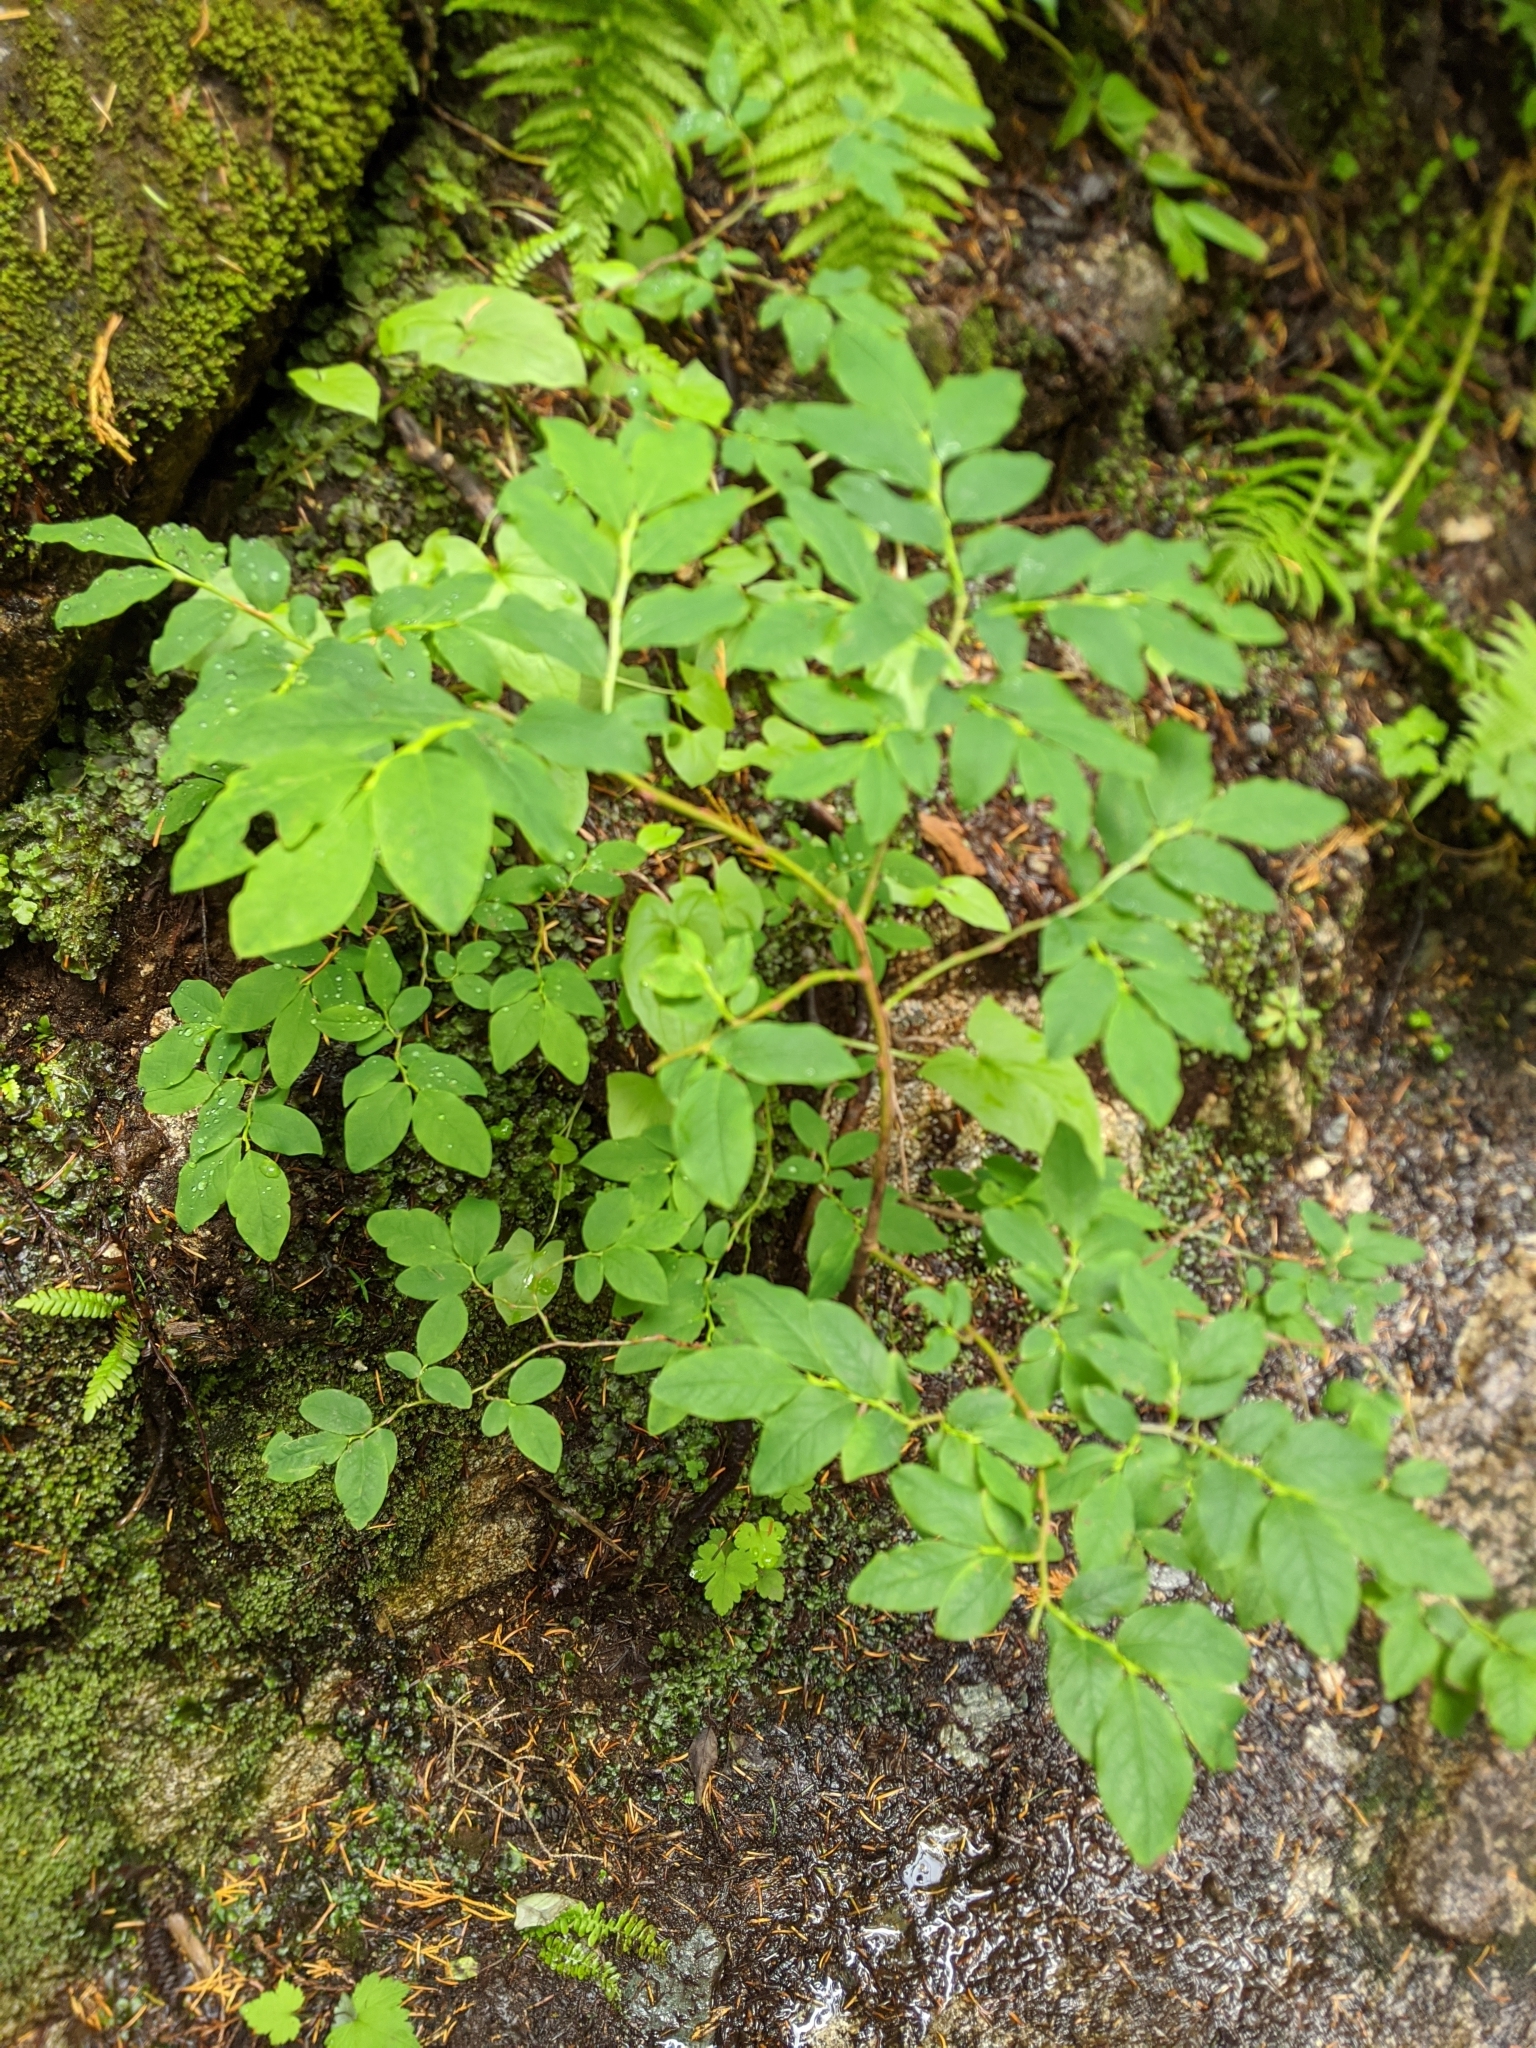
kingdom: Plantae
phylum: Tracheophyta
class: Magnoliopsida
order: Ericales
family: Ericaceae
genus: Vaccinium
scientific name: Vaccinium ovalifolium
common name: Early blueberry
